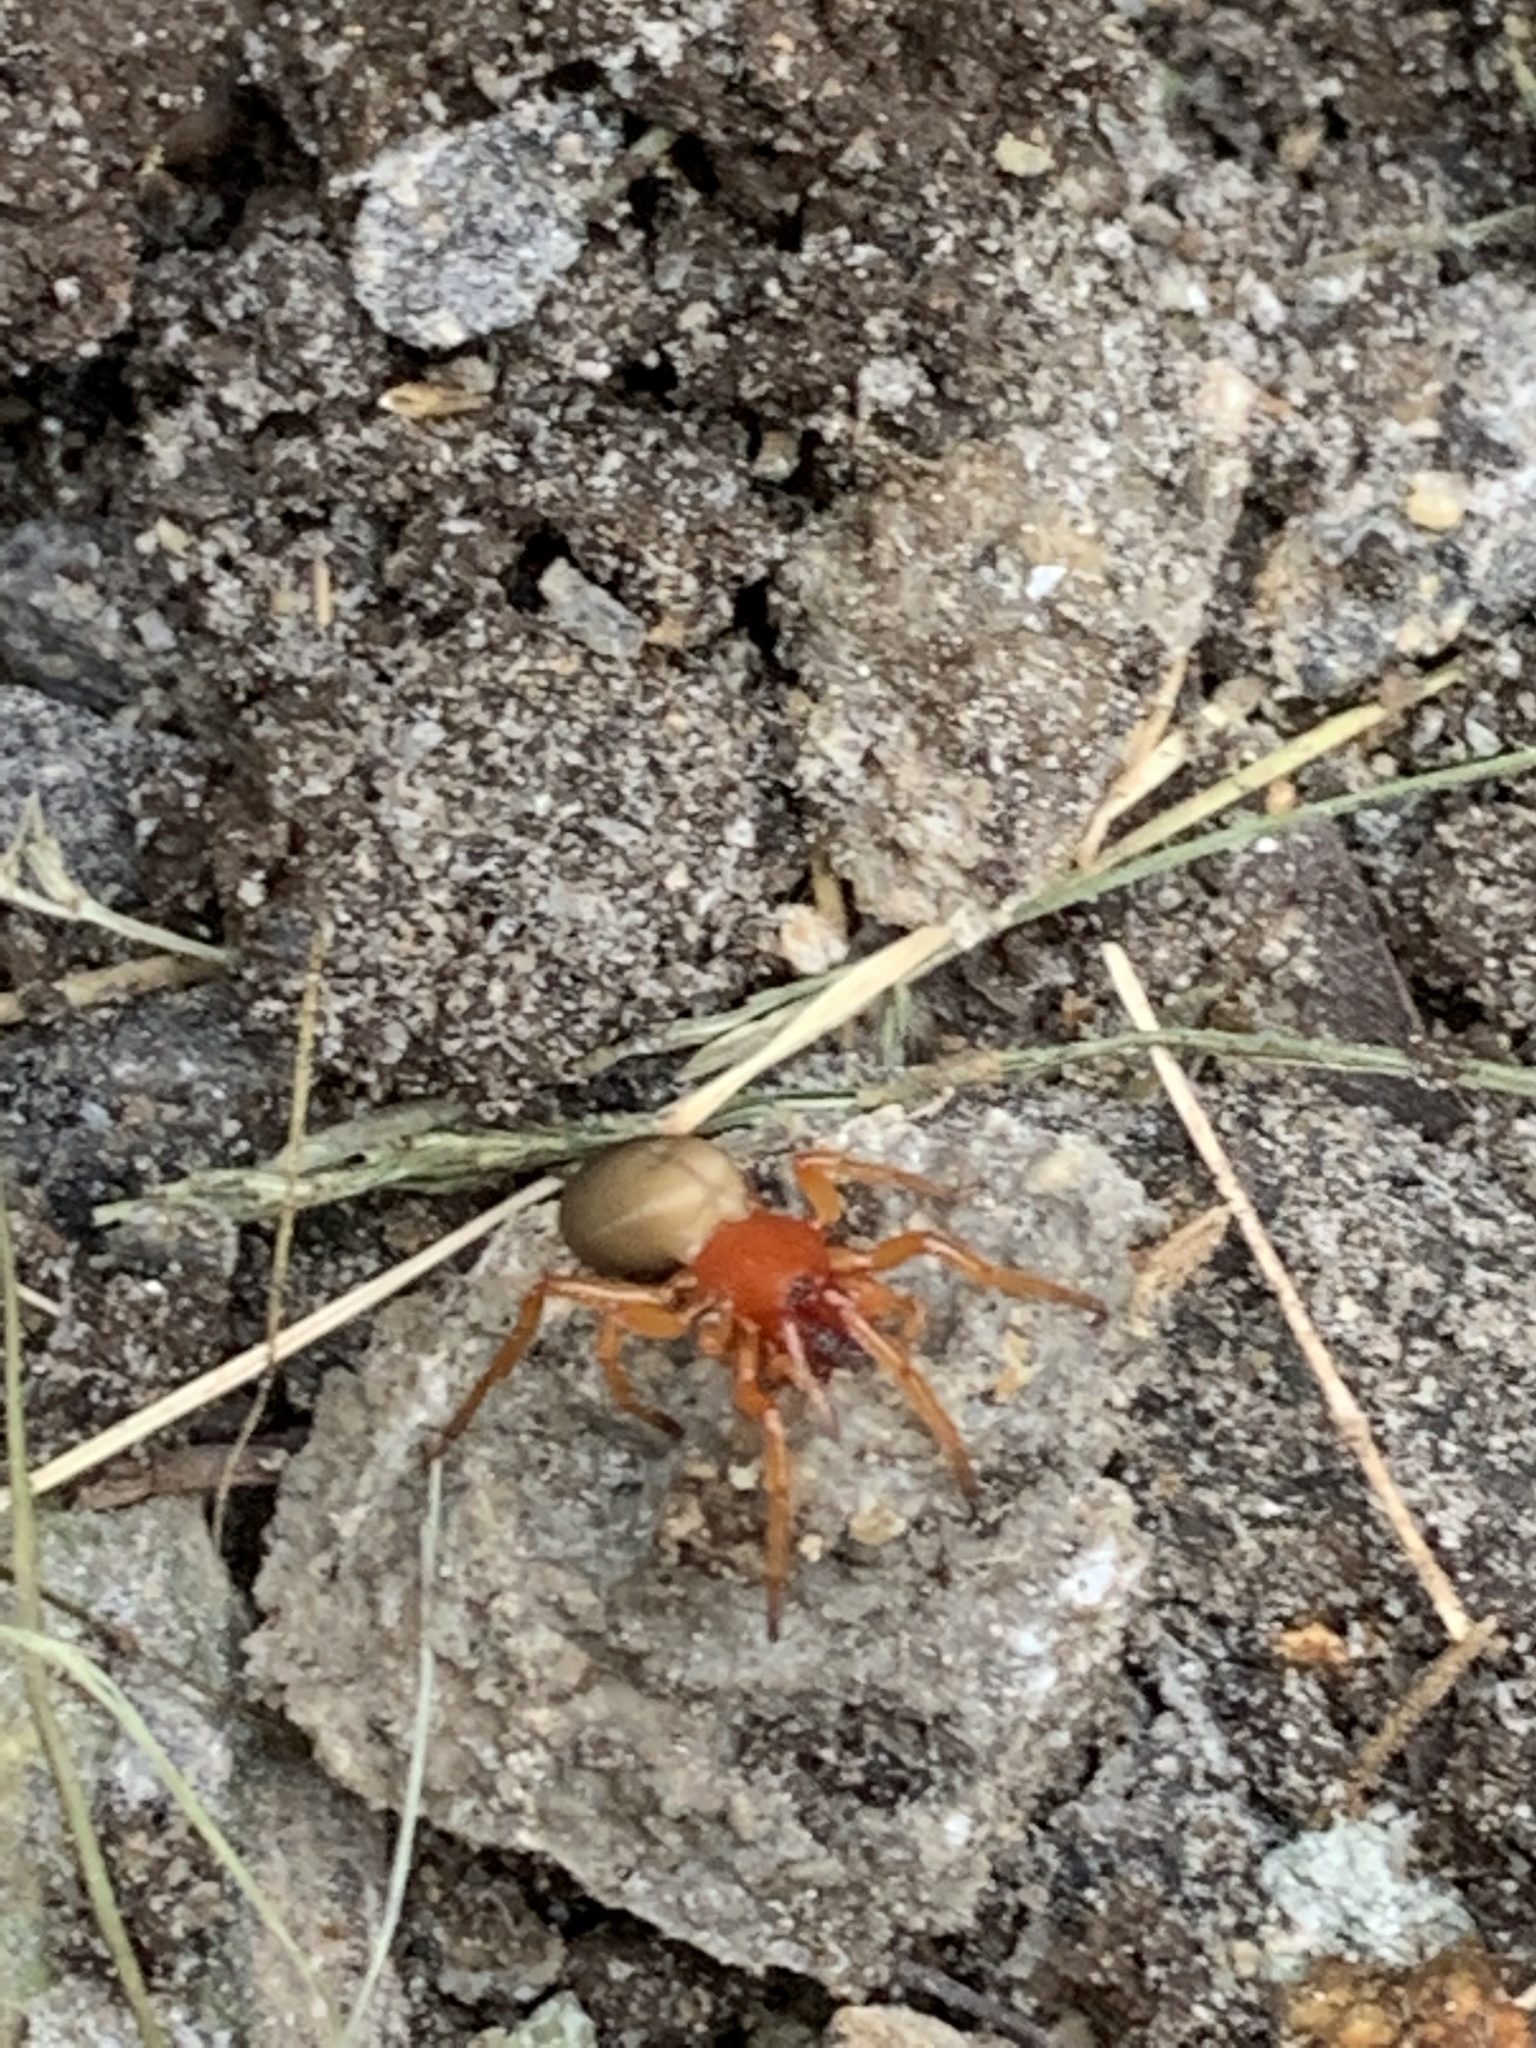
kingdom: Animalia
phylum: Arthropoda
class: Arachnida
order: Araneae
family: Dysderidae
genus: Dysdera
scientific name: Dysdera crocata
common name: Woodlouse spider
